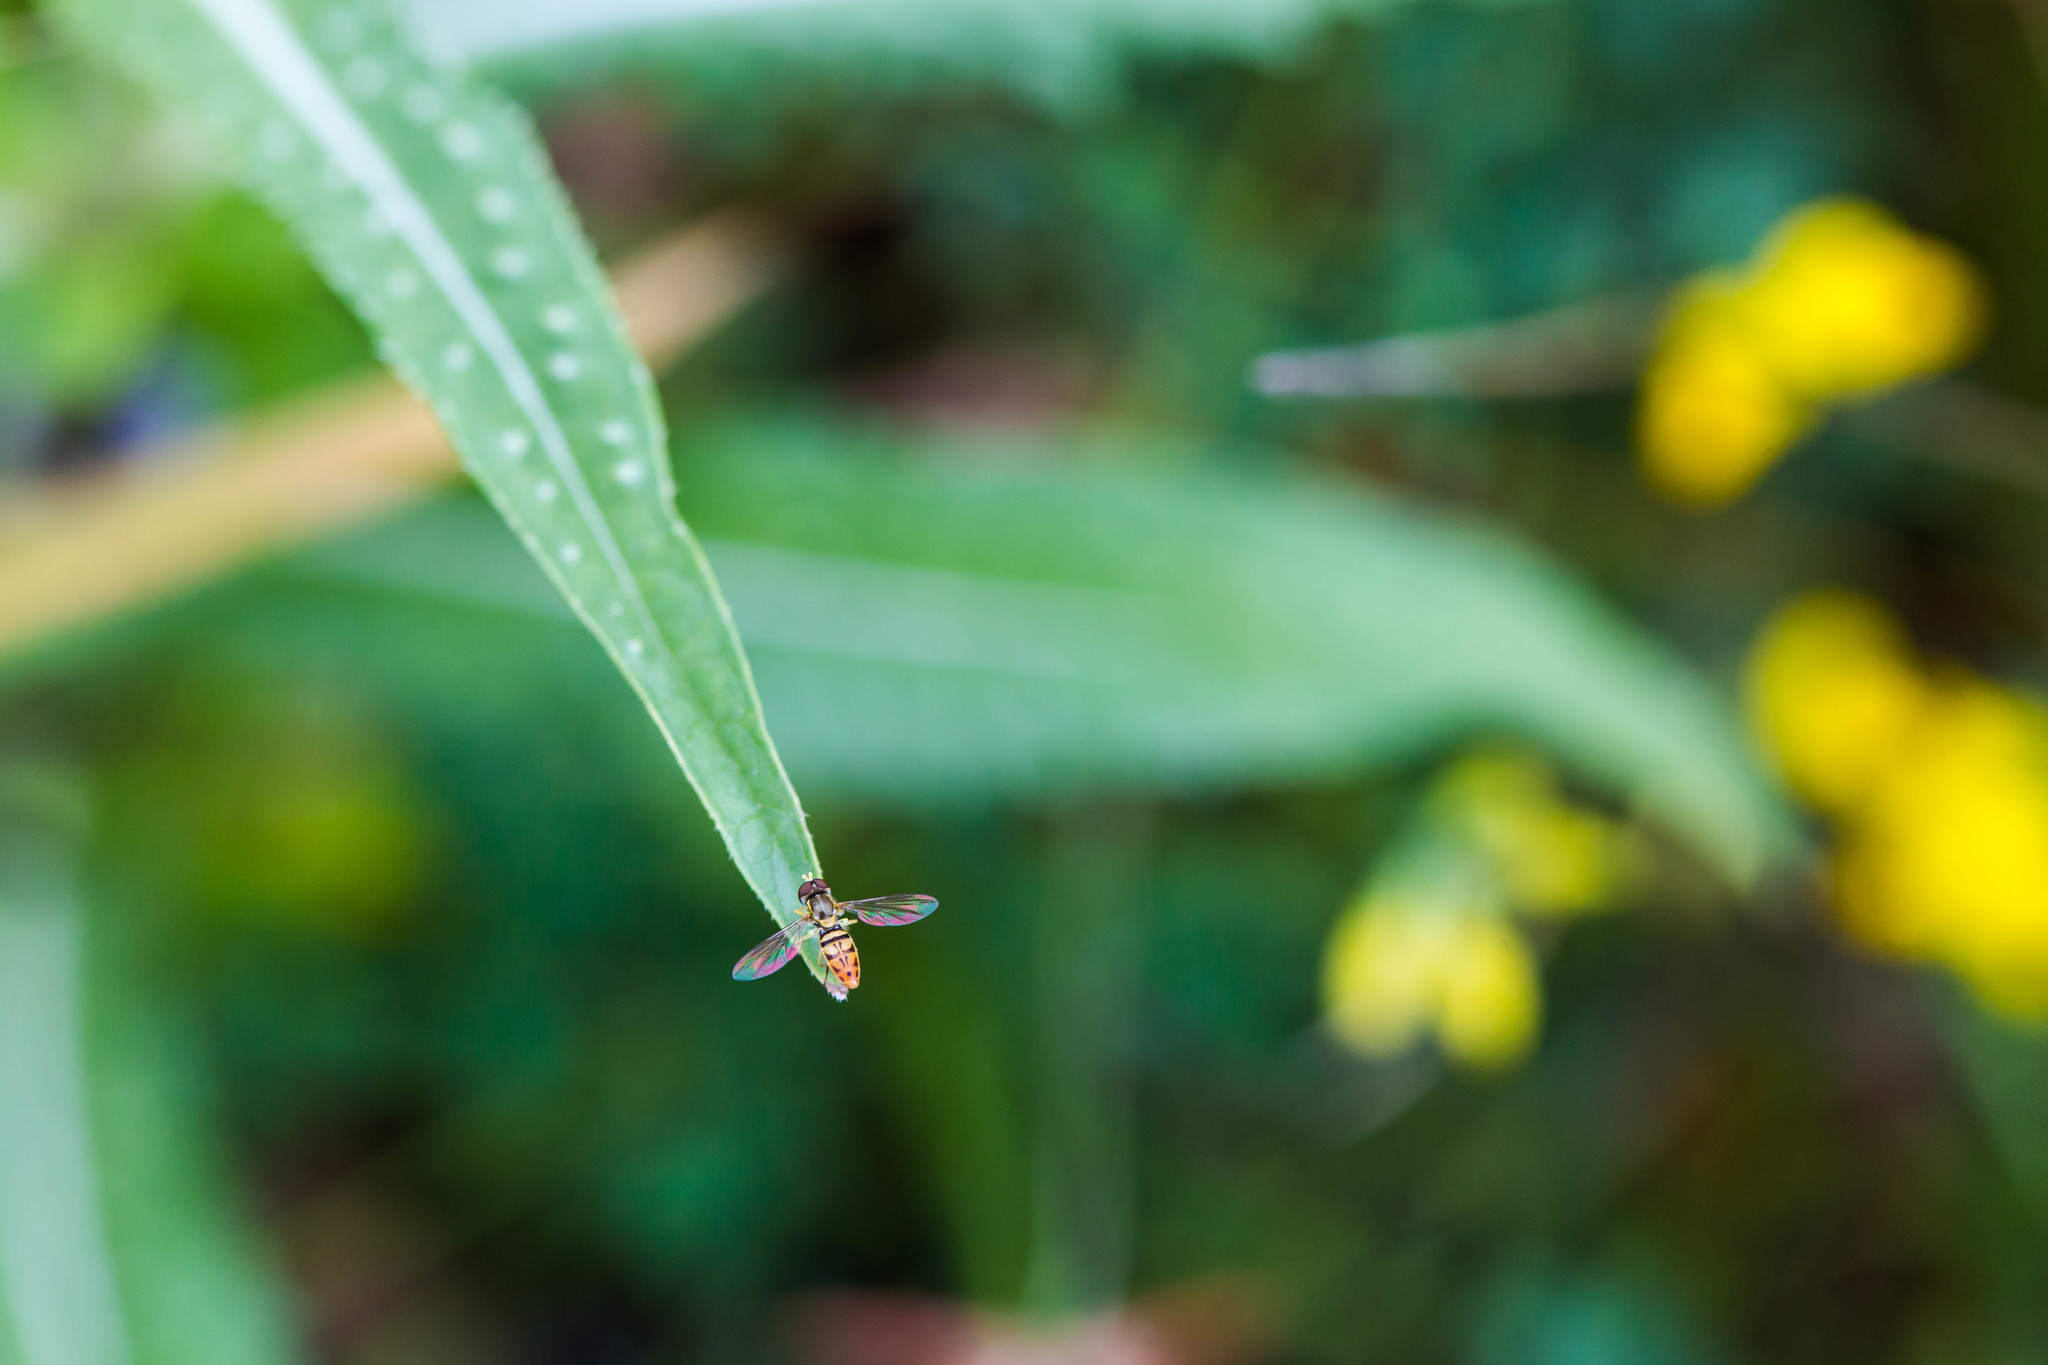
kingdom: Animalia
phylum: Arthropoda
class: Insecta
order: Diptera
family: Syrphidae
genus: Toxomerus
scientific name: Toxomerus marginatus
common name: Syrphid fly
